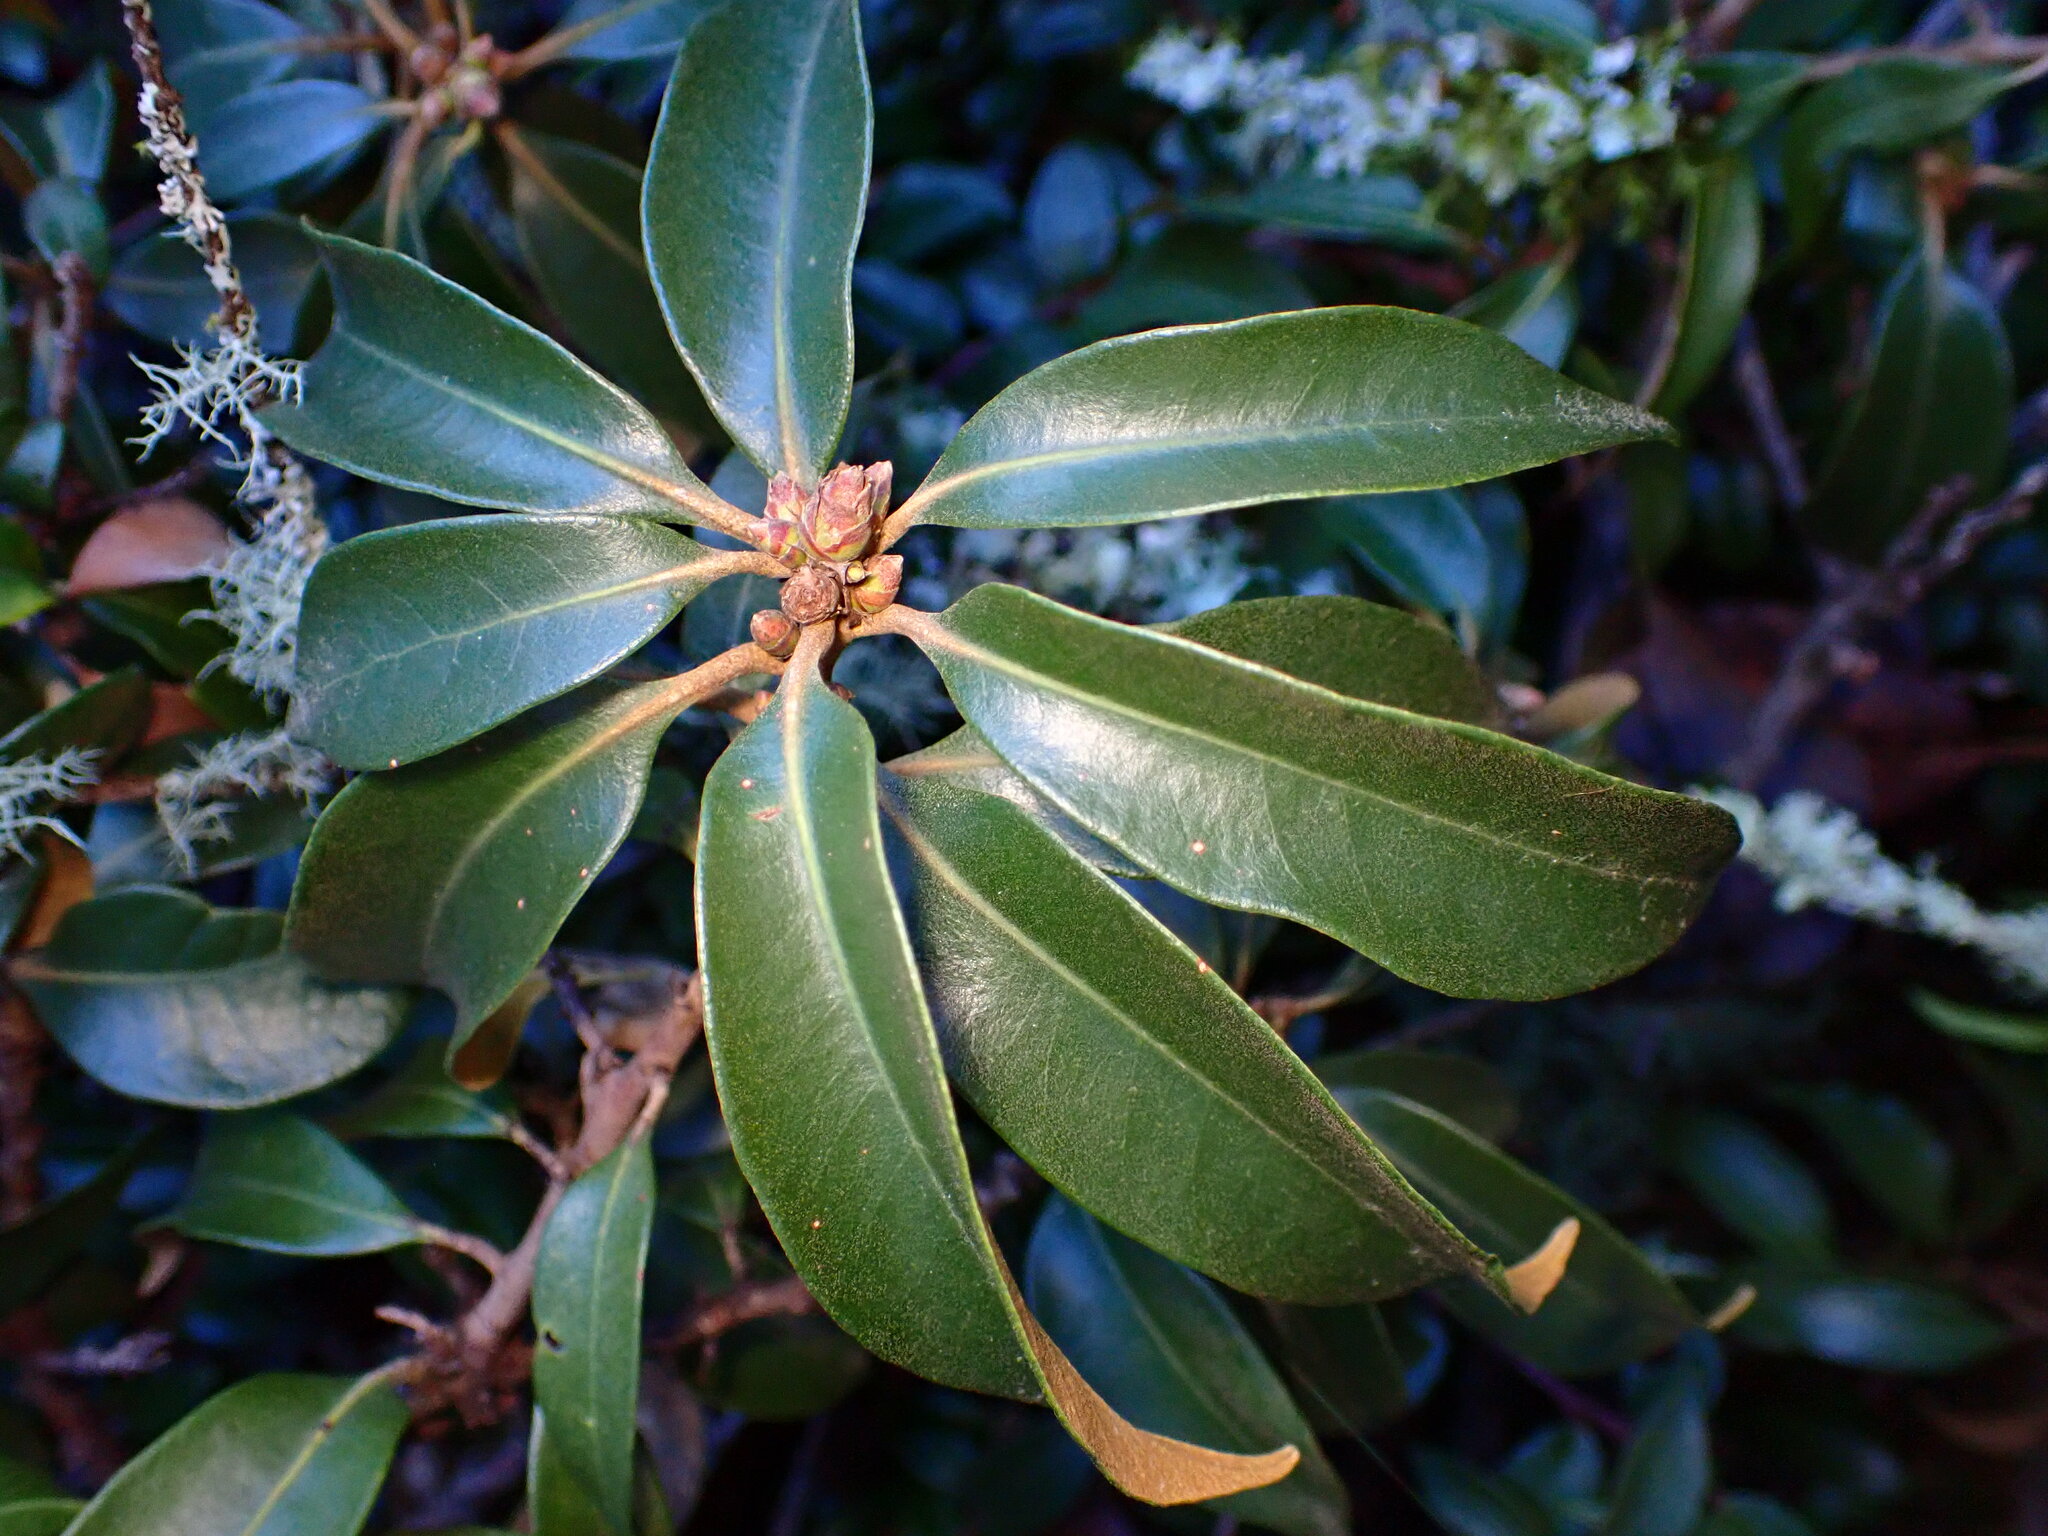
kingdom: Plantae
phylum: Tracheophyta
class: Magnoliopsida
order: Fagales
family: Fagaceae
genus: Chrysolepis
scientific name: Chrysolepis chrysophylla
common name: Giant chinquapin
